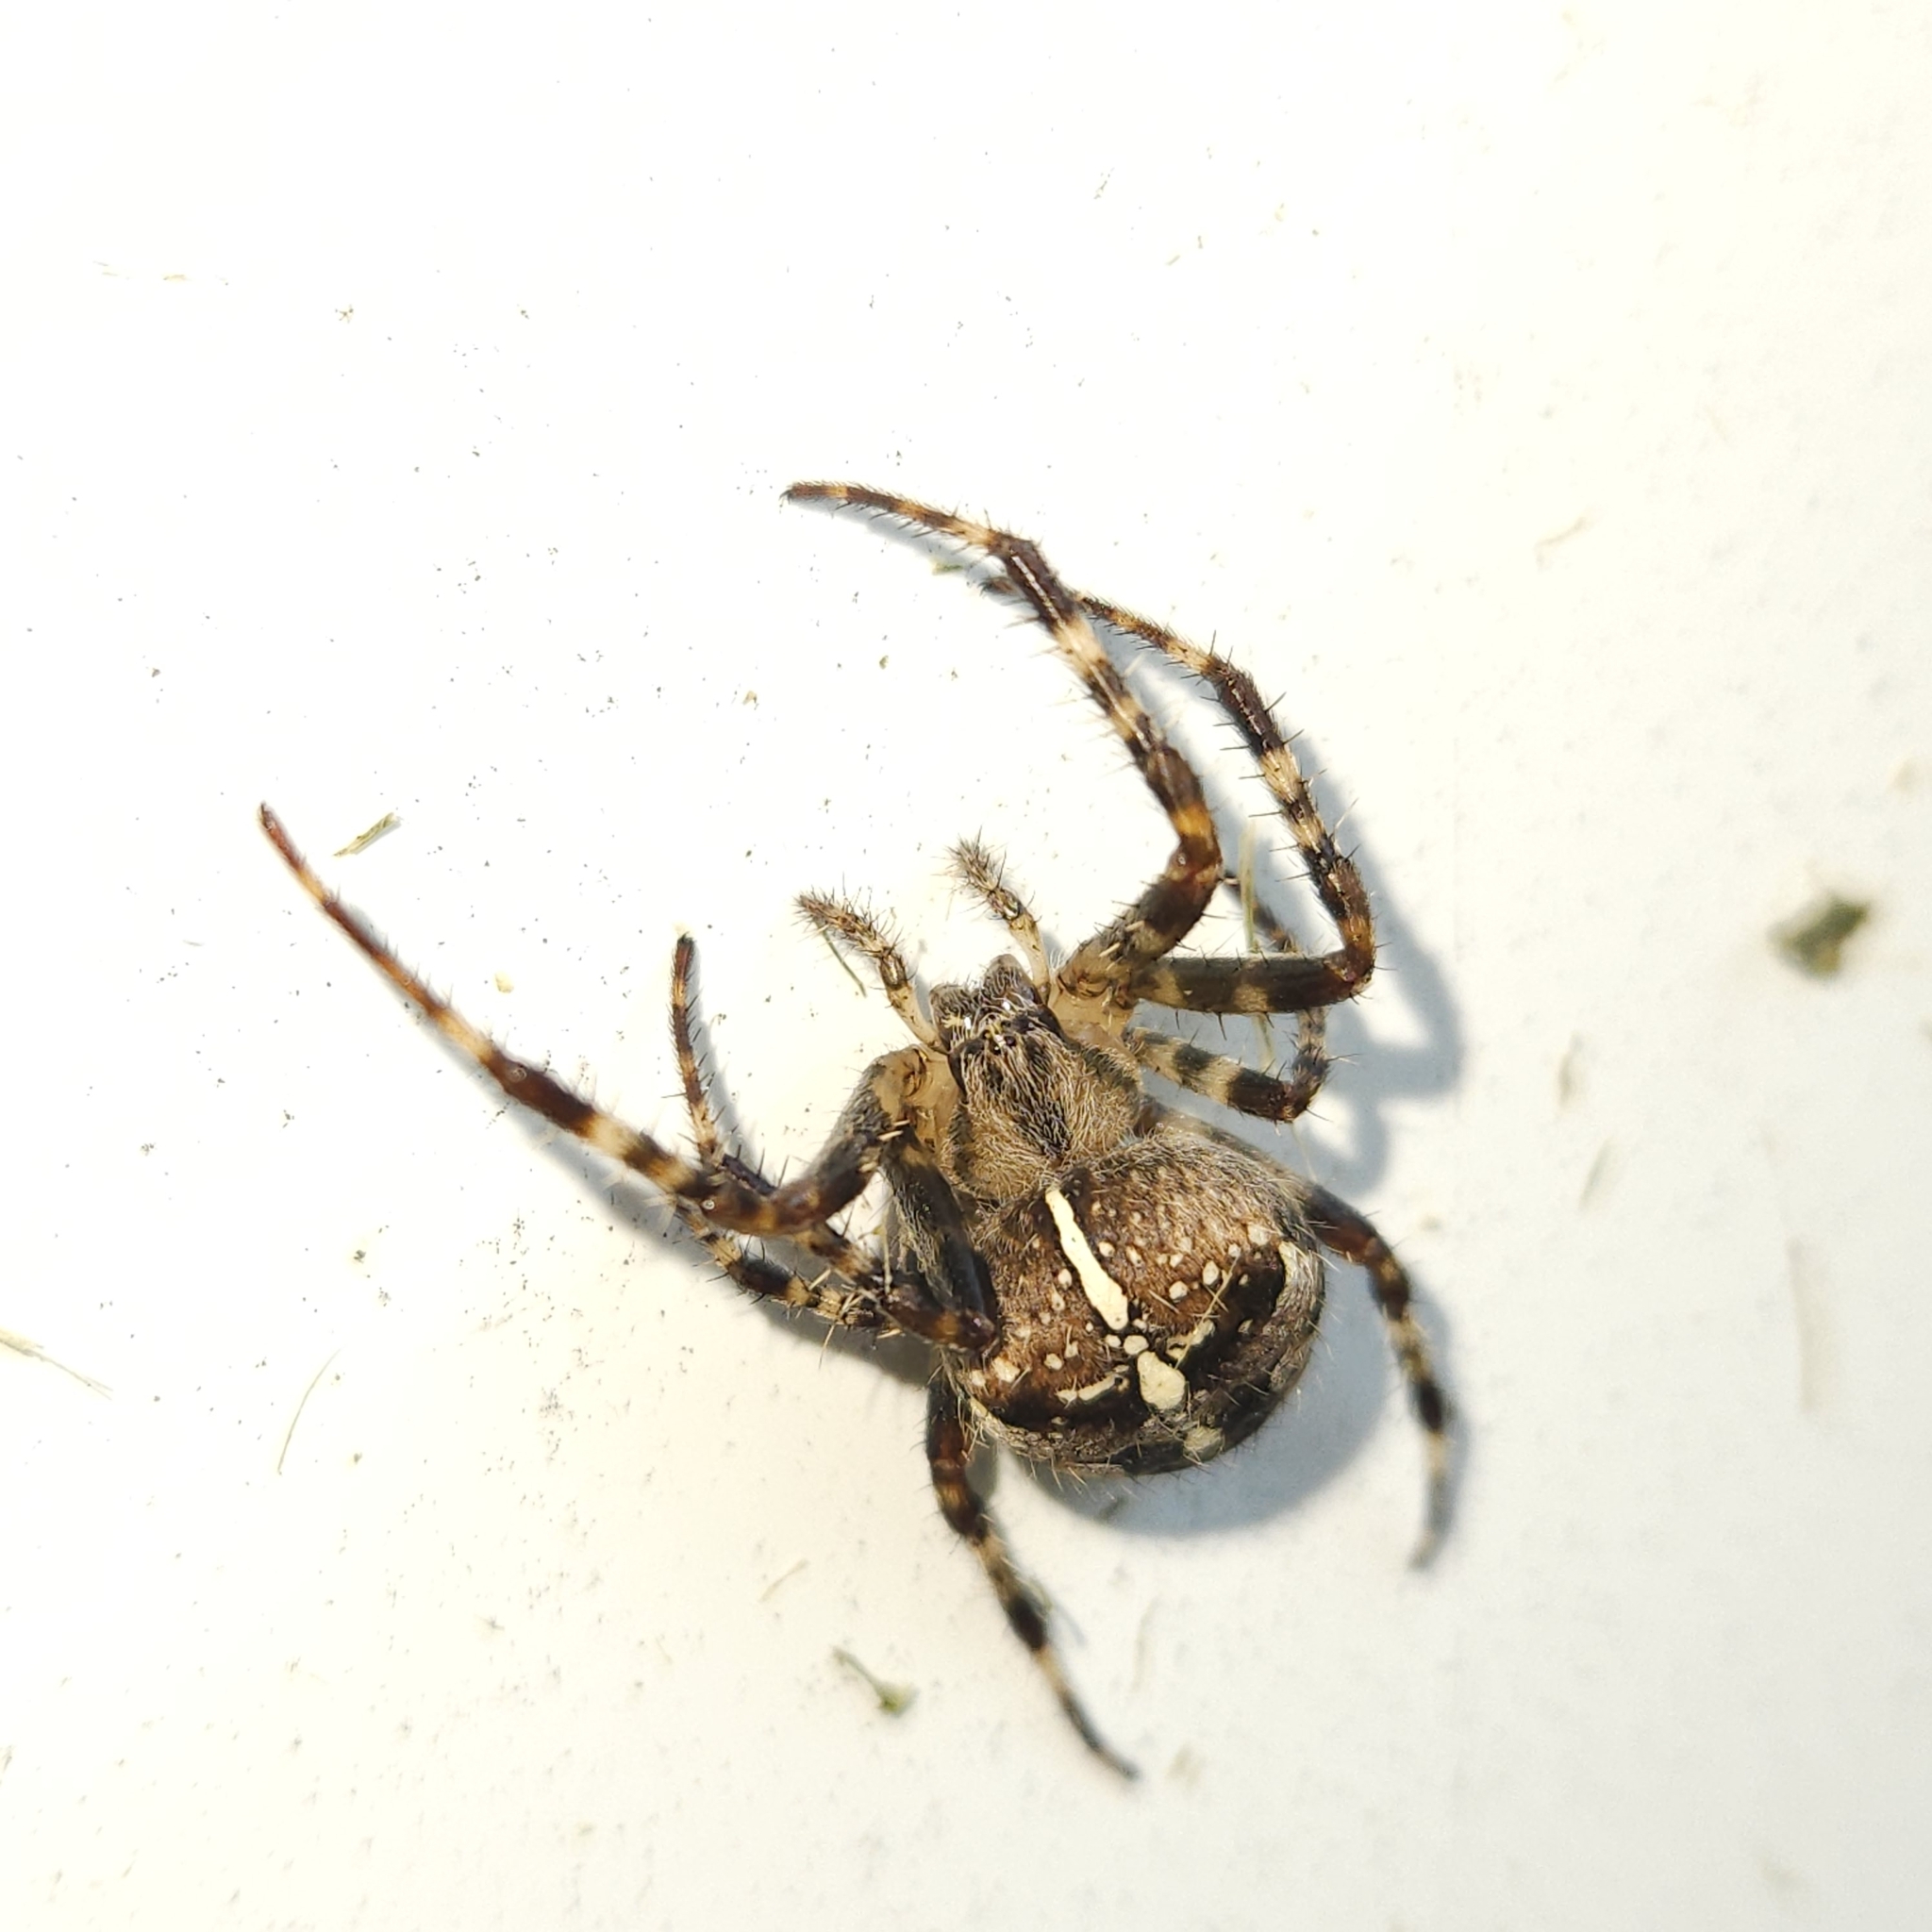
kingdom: Animalia
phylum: Arthropoda
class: Arachnida
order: Araneae
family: Araneidae
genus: Araneus
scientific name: Araneus diadematus
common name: Cross orbweaver
